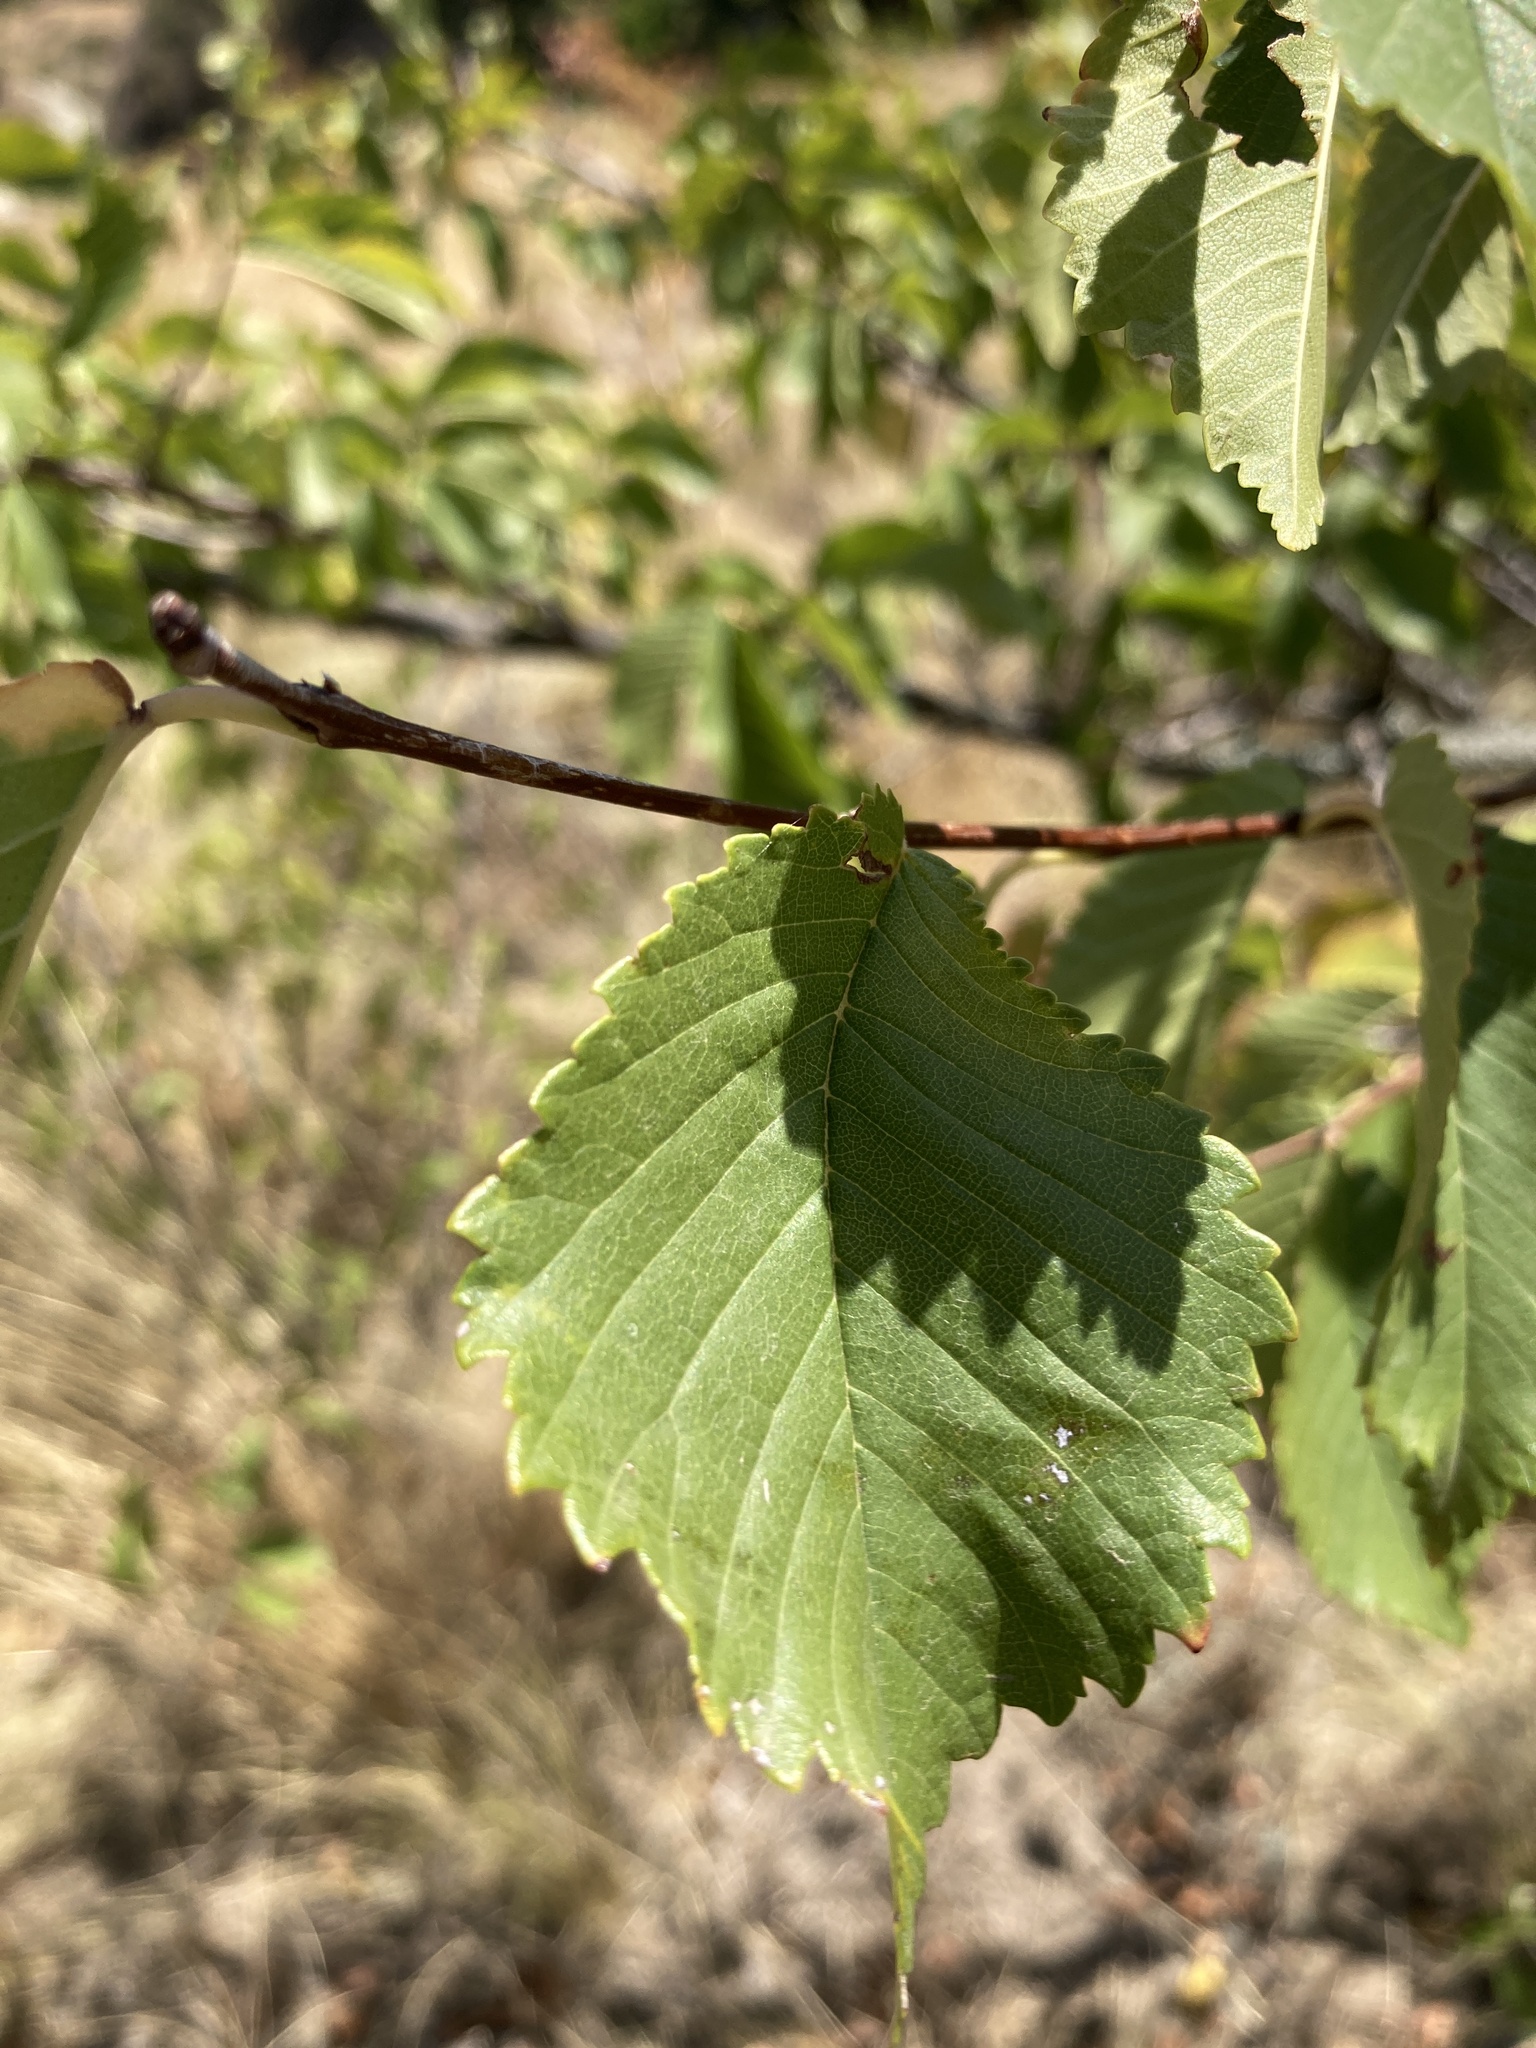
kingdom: Plantae
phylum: Tracheophyta
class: Magnoliopsida
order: Rosales
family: Ulmaceae
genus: Ulmus
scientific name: Ulmus minor
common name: Small-leaved elm
